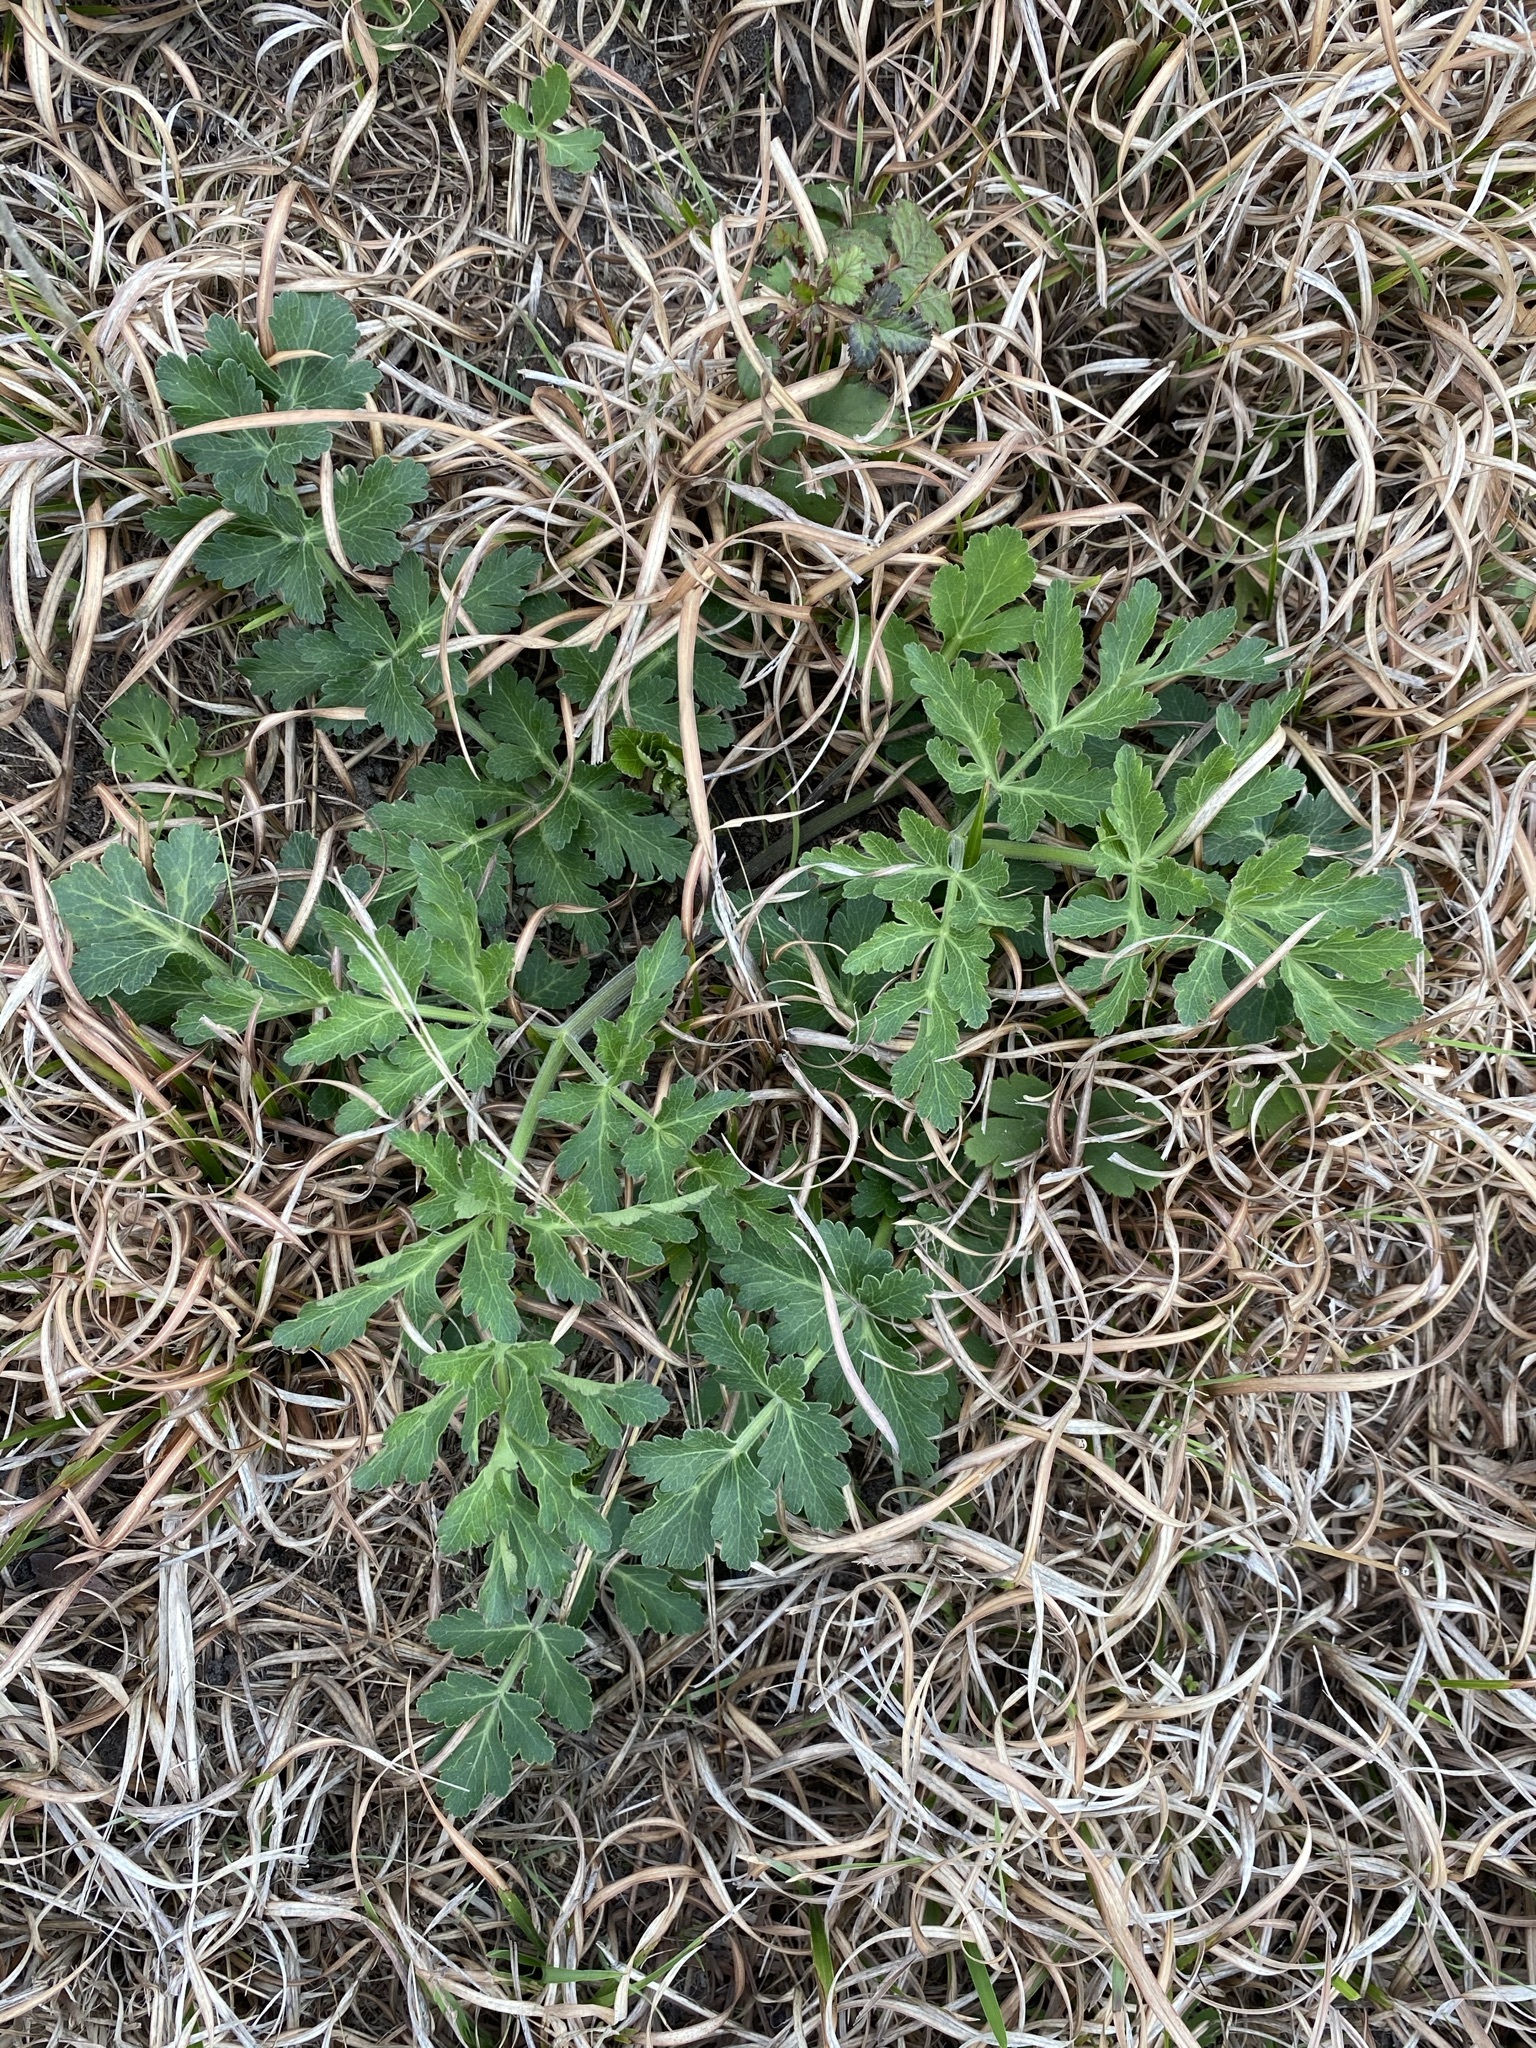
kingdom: Plantae
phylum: Tracheophyta
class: Magnoliopsida
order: Apiales
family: Apiaceae
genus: Polytaenia
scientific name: Polytaenia texana
